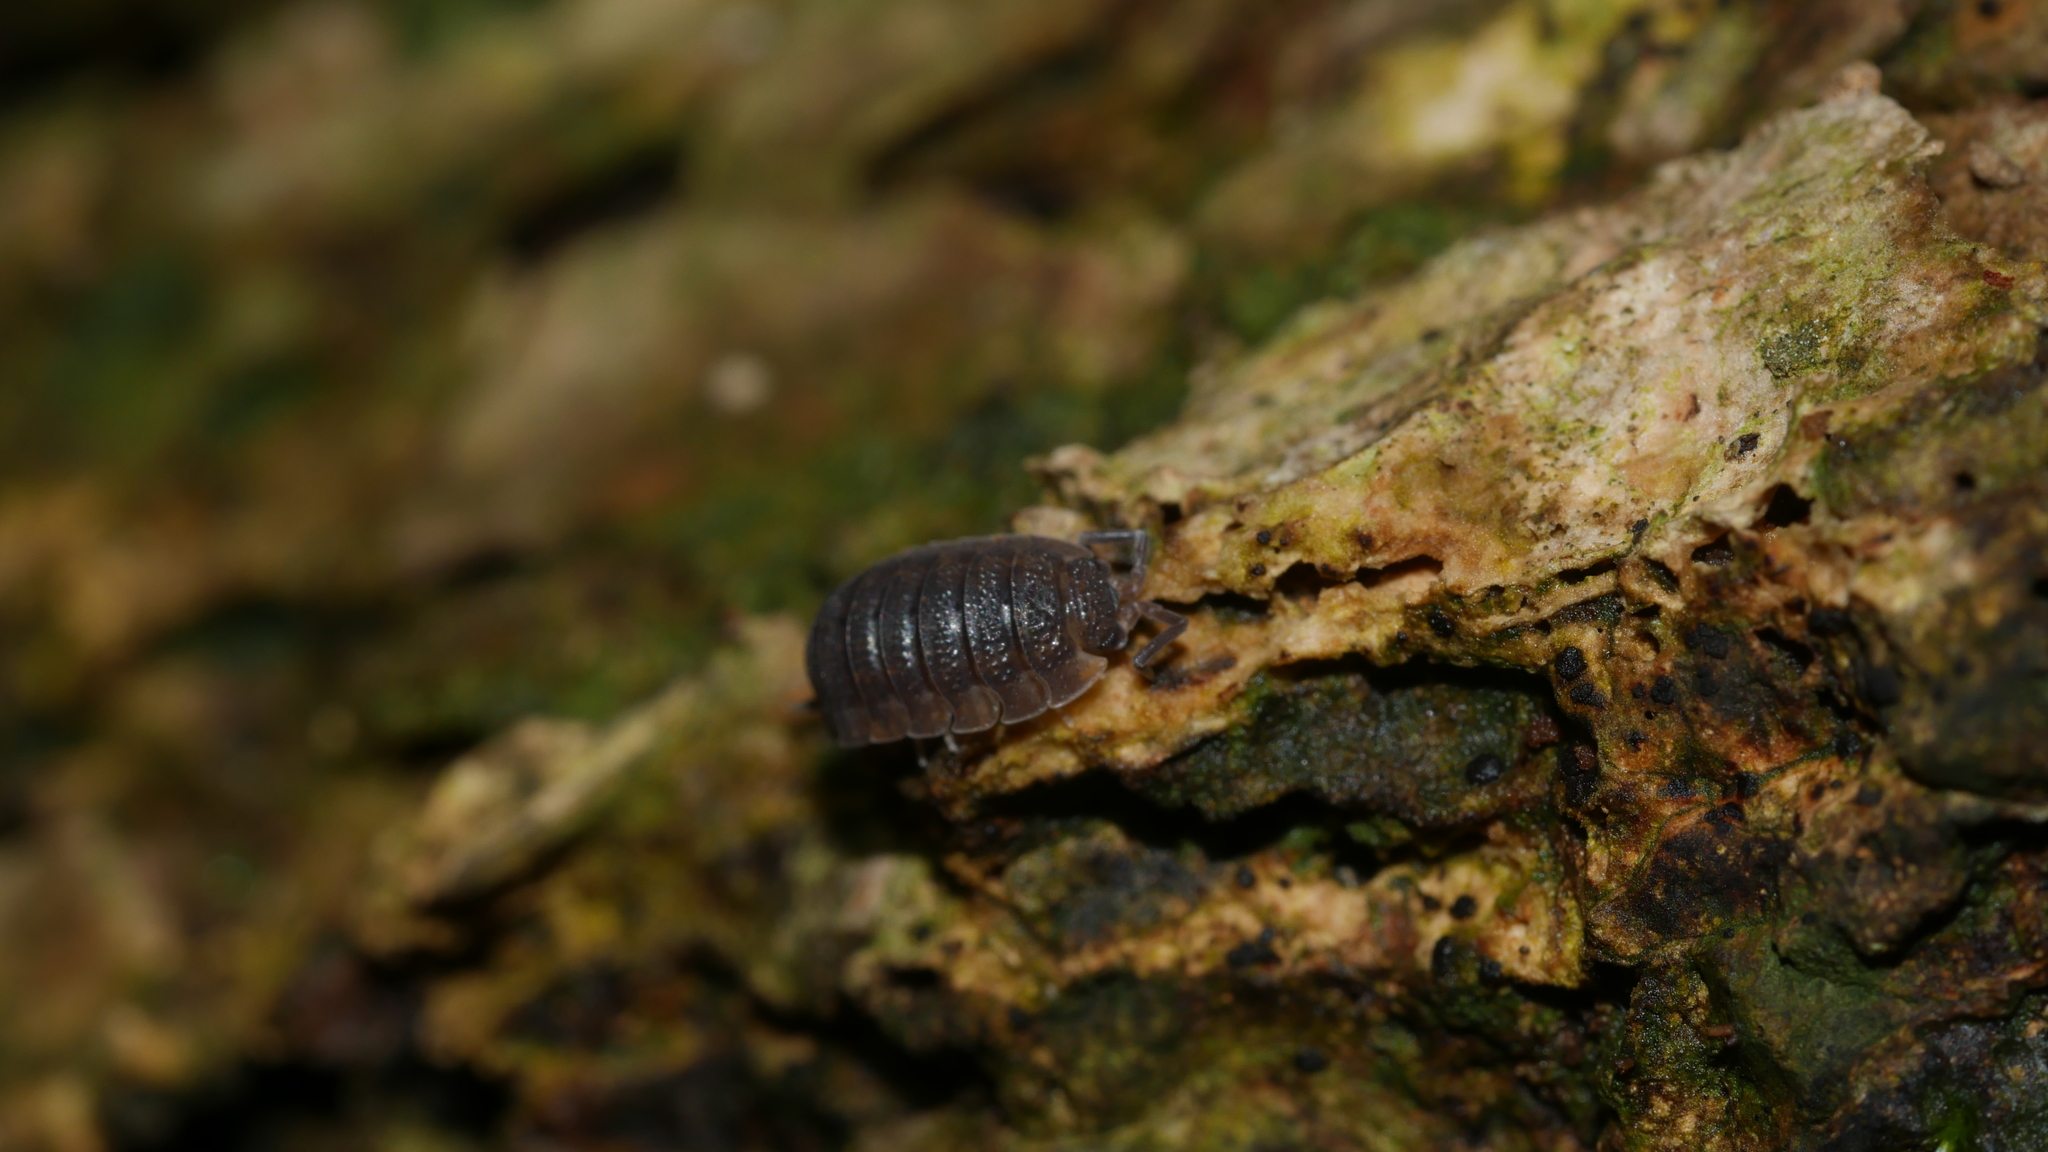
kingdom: Animalia
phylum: Arthropoda
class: Malacostraca
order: Isopoda
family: Porcellionidae
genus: Porcellio
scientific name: Porcellio scaber
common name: Common rough woodlouse
